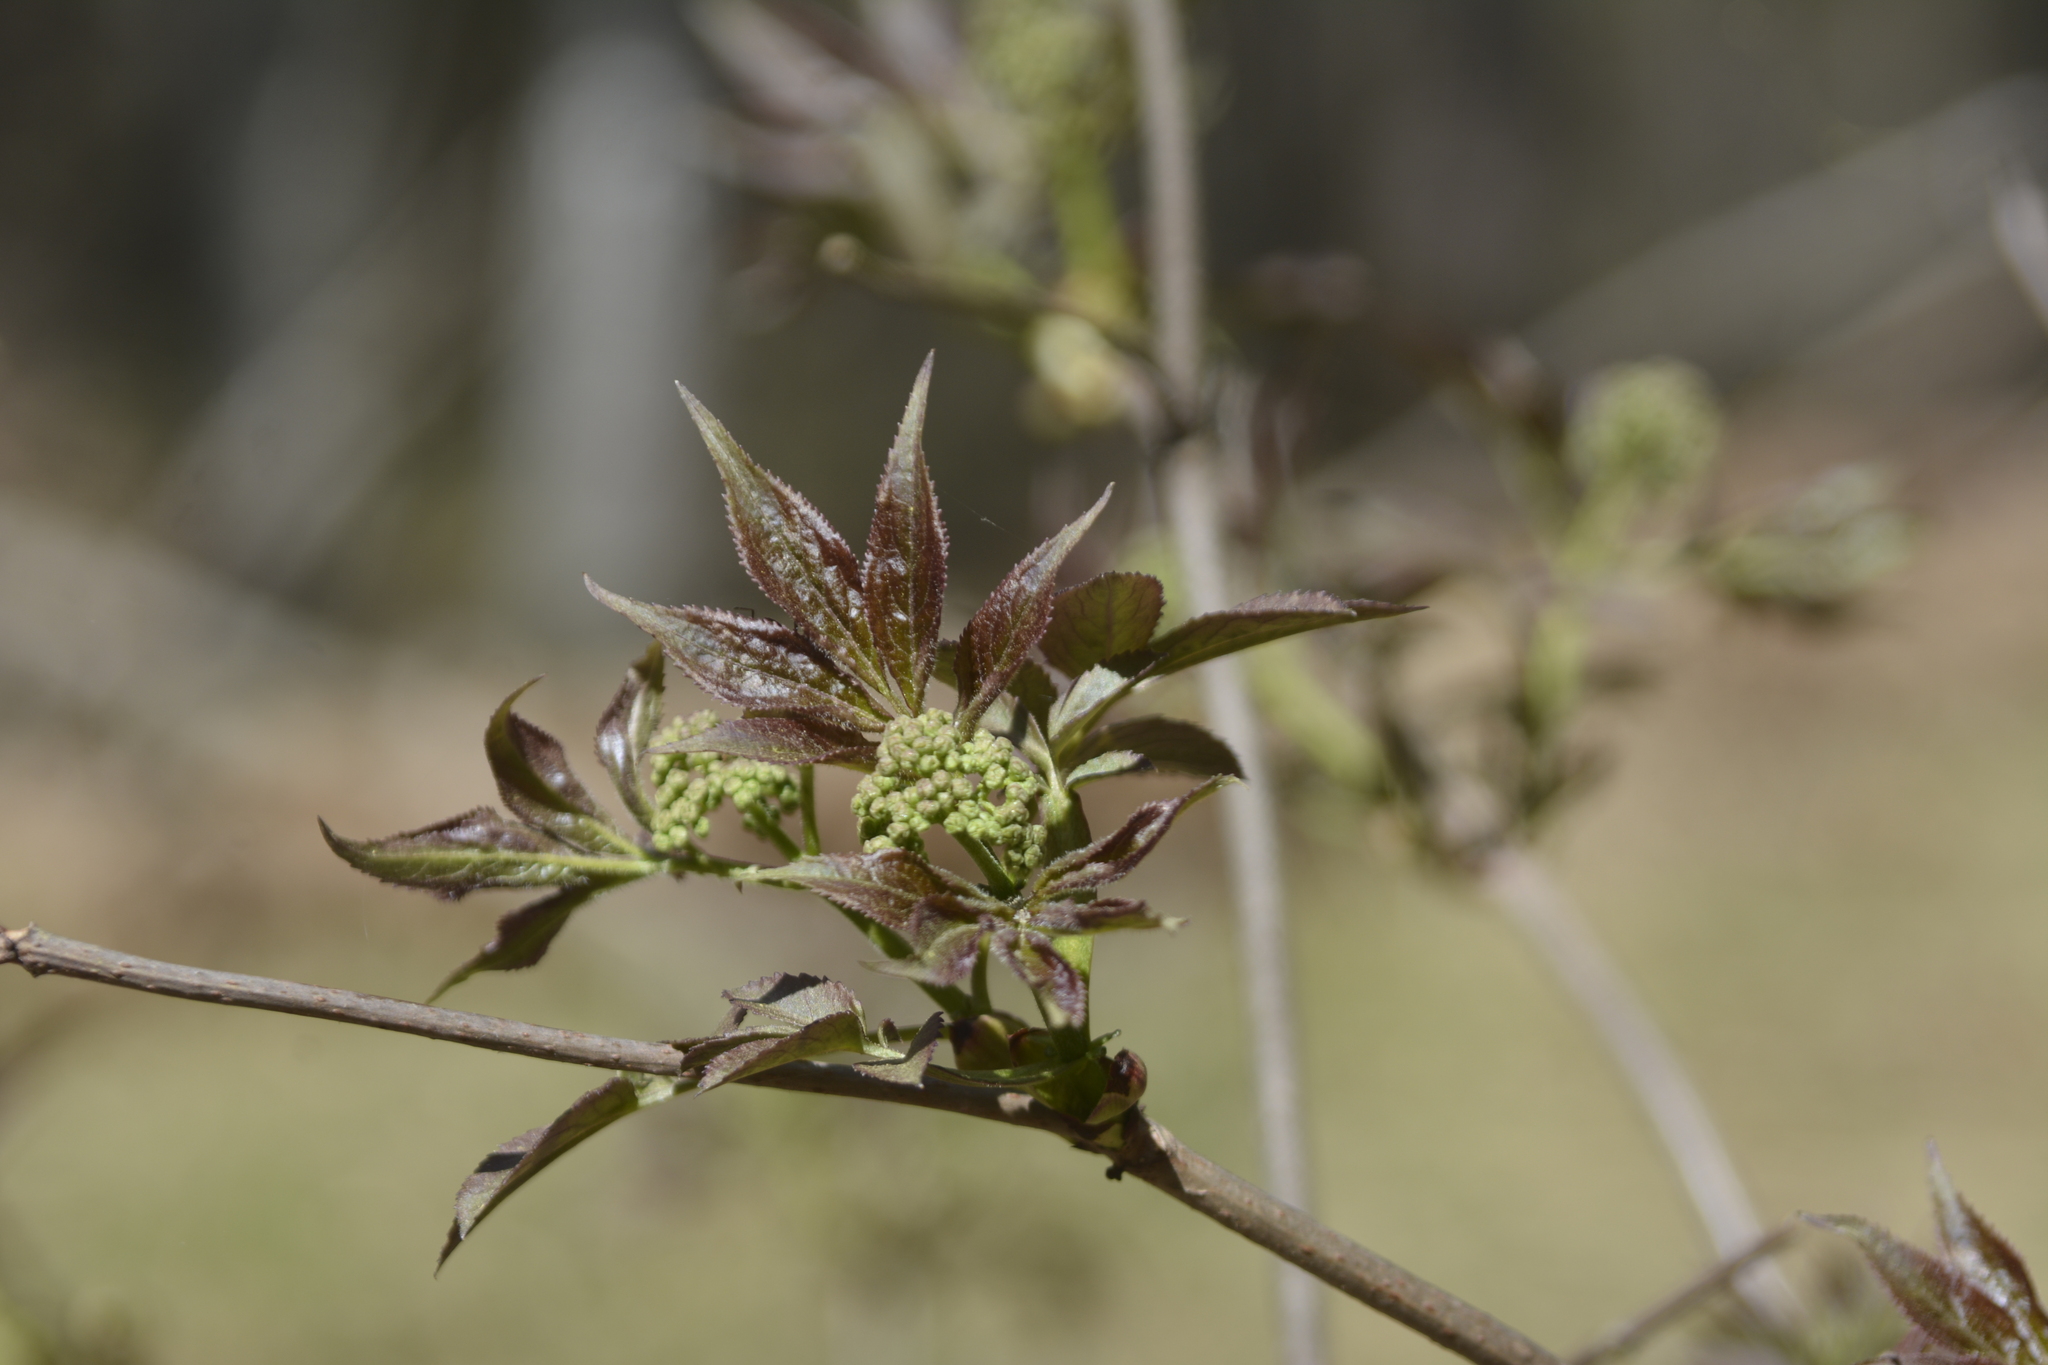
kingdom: Plantae
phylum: Tracheophyta
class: Magnoliopsida
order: Dipsacales
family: Viburnaceae
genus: Sambucus
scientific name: Sambucus racemosa
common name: Red-berried elder
